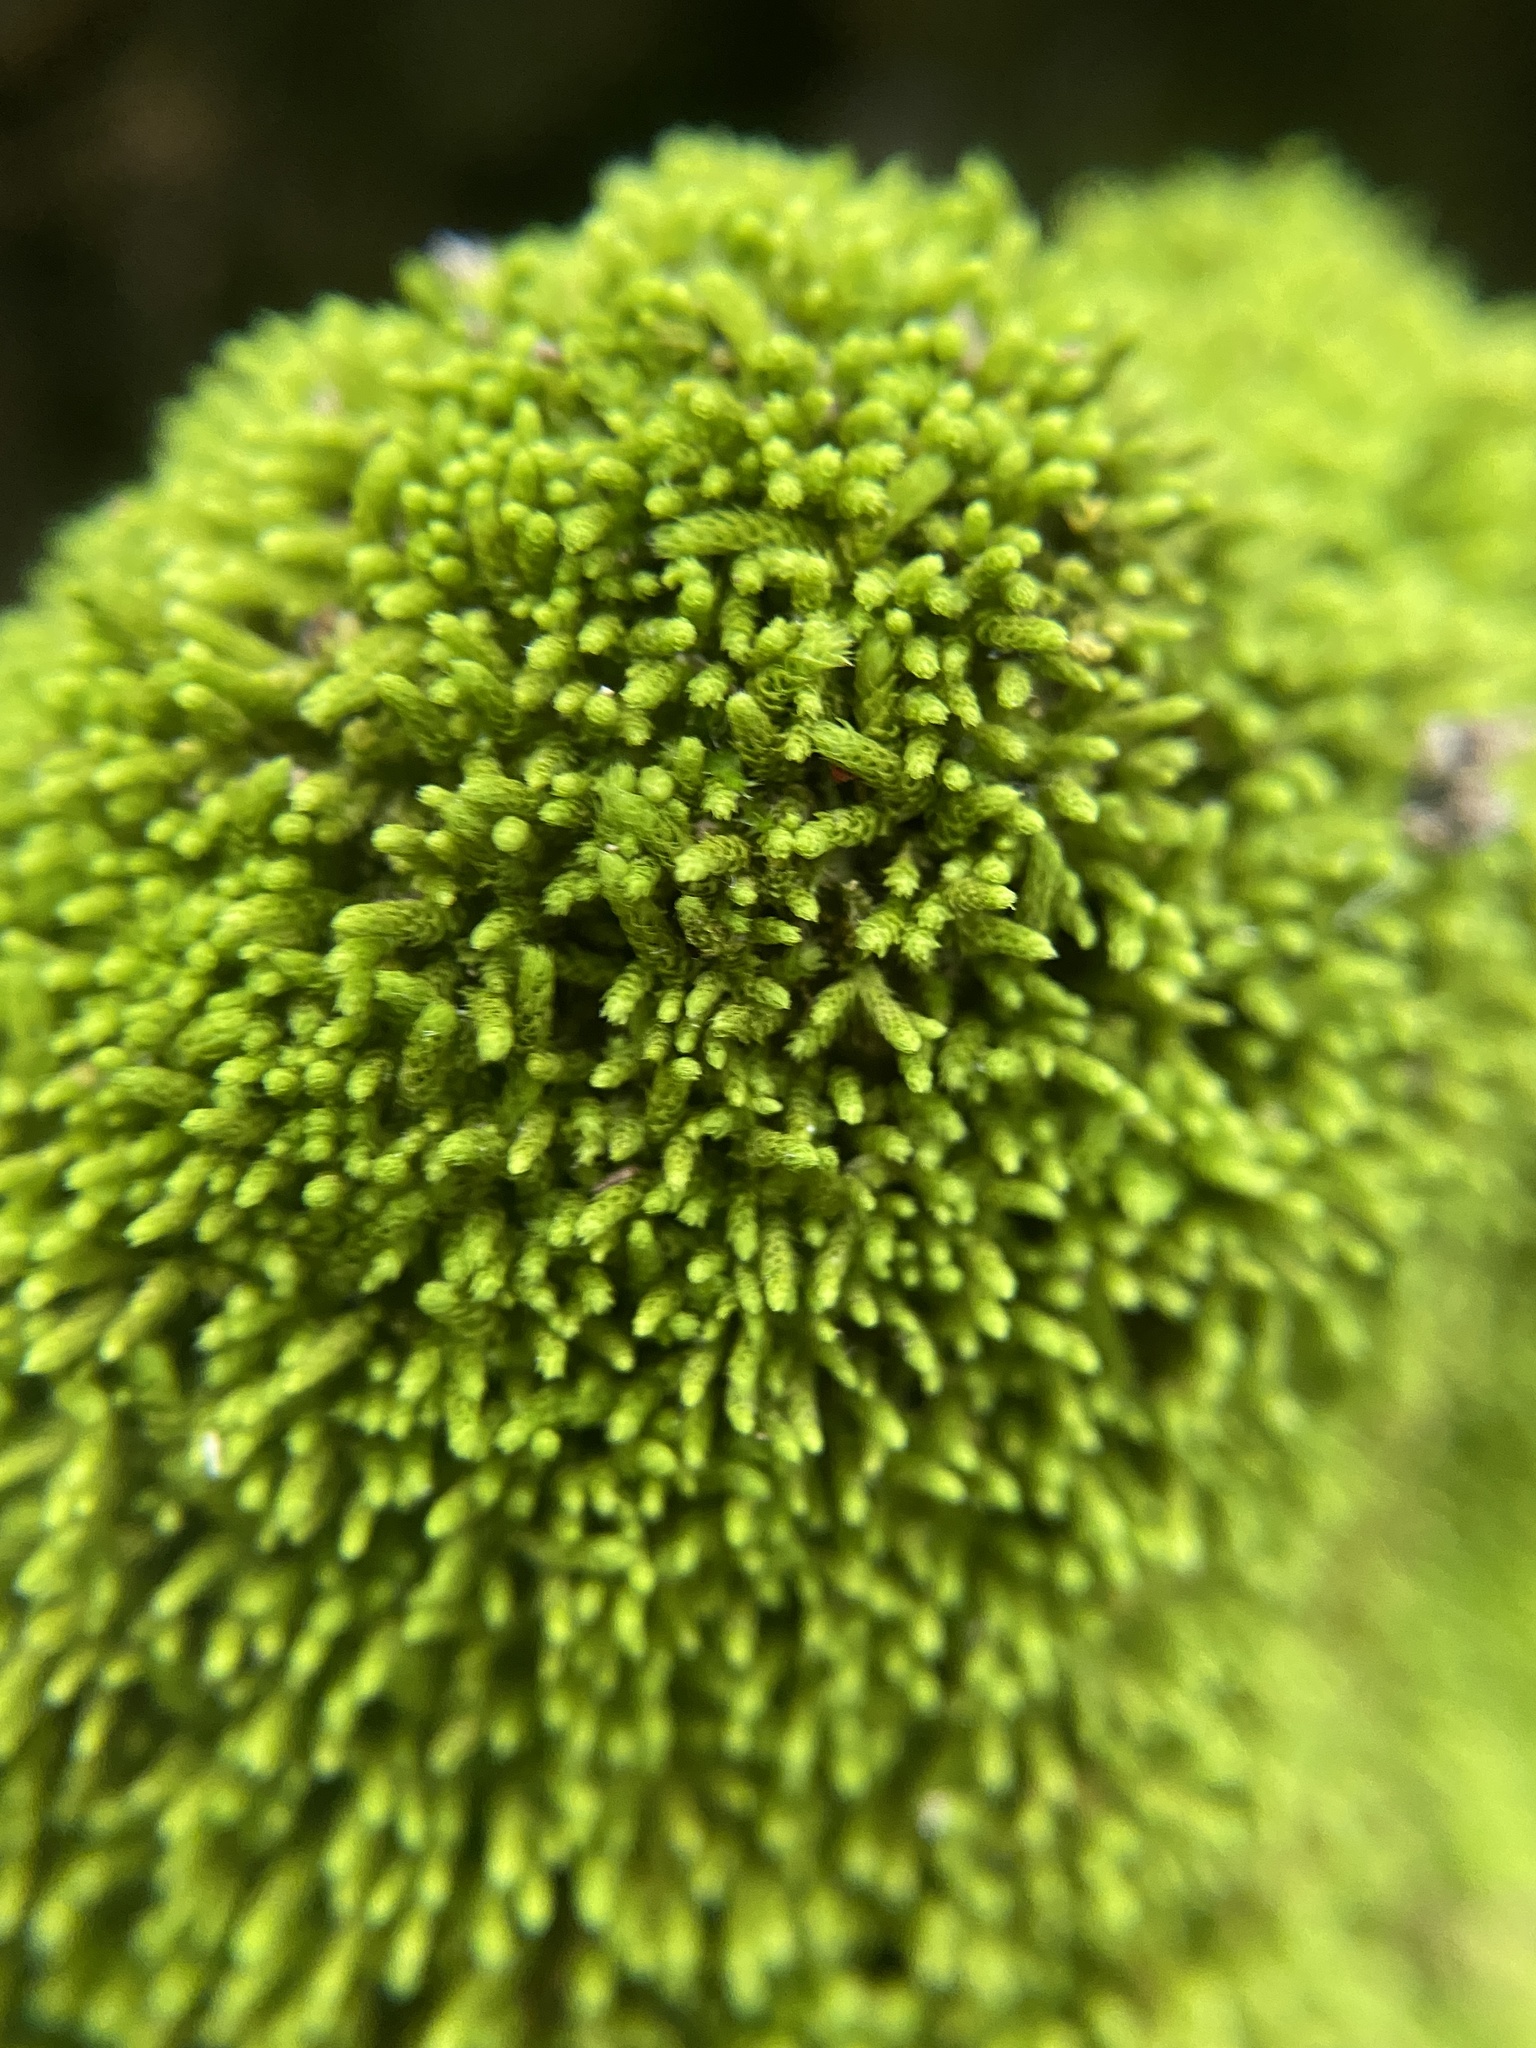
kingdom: Plantae
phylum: Bryophyta
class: Bryopsida
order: Hypnales
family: Brachytheciaceae
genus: Claopodium
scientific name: Claopodium rostratum
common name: Yellow yarn moss
